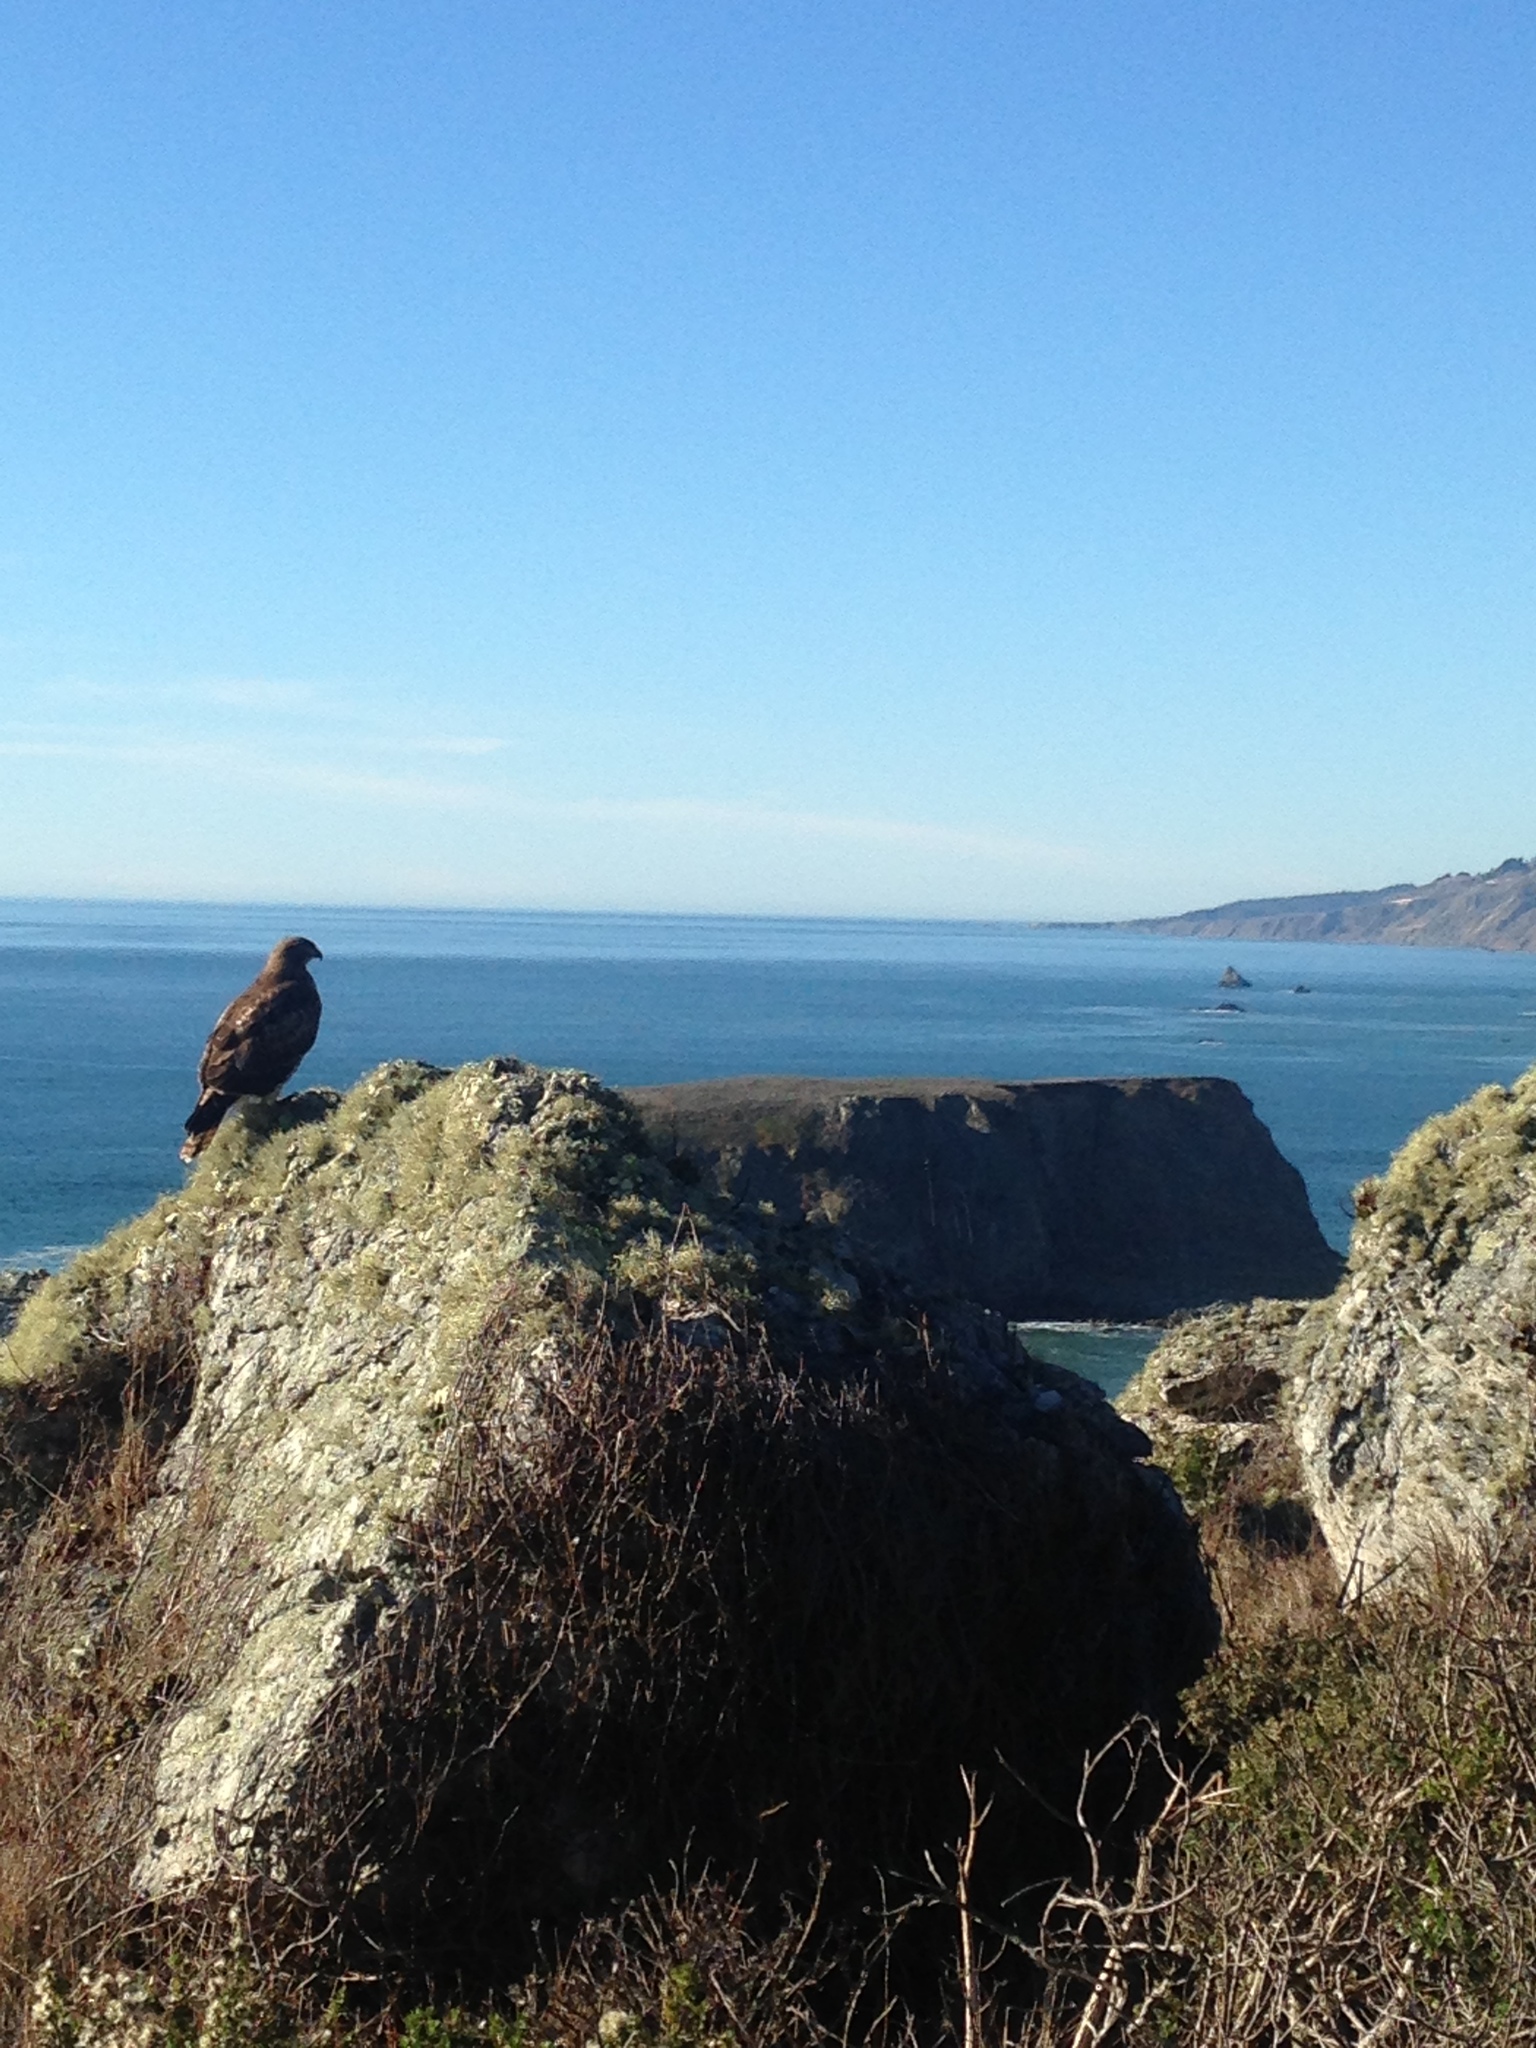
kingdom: Animalia
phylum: Chordata
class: Aves
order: Accipitriformes
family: Accipitridae
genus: Buteo
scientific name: Buteo jamaicensis
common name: Red-tailed hawk
